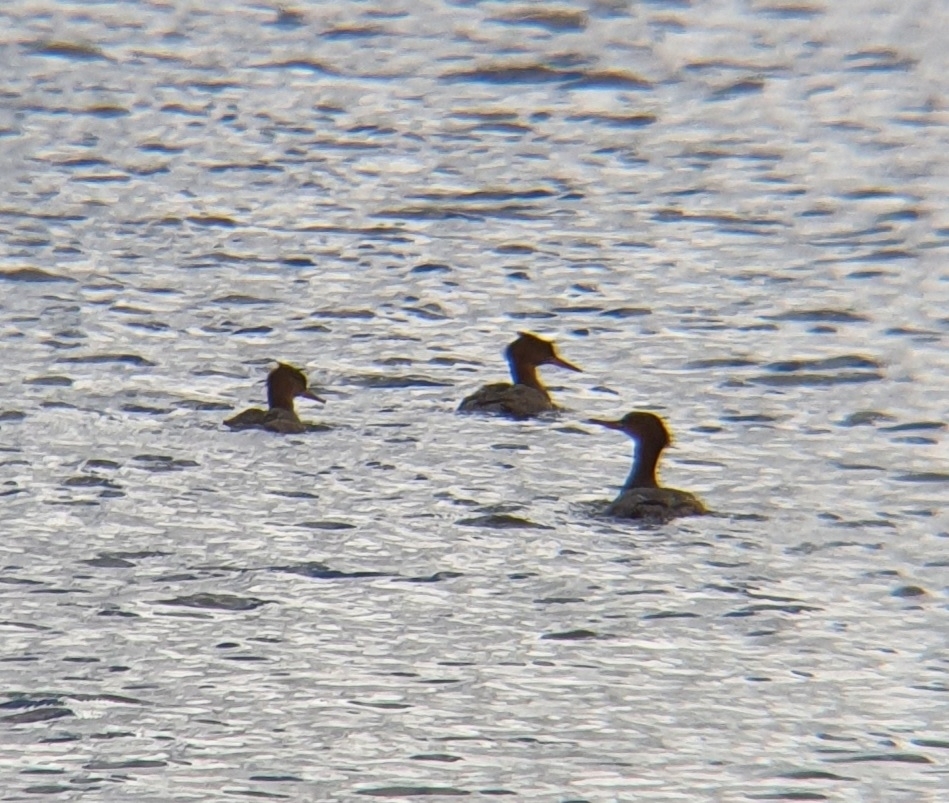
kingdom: Animalia
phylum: Chordata
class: Aves
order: Anseriformes
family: Anatidae
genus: Mergus
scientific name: Mergus serrator
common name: Red-breasted merganser
